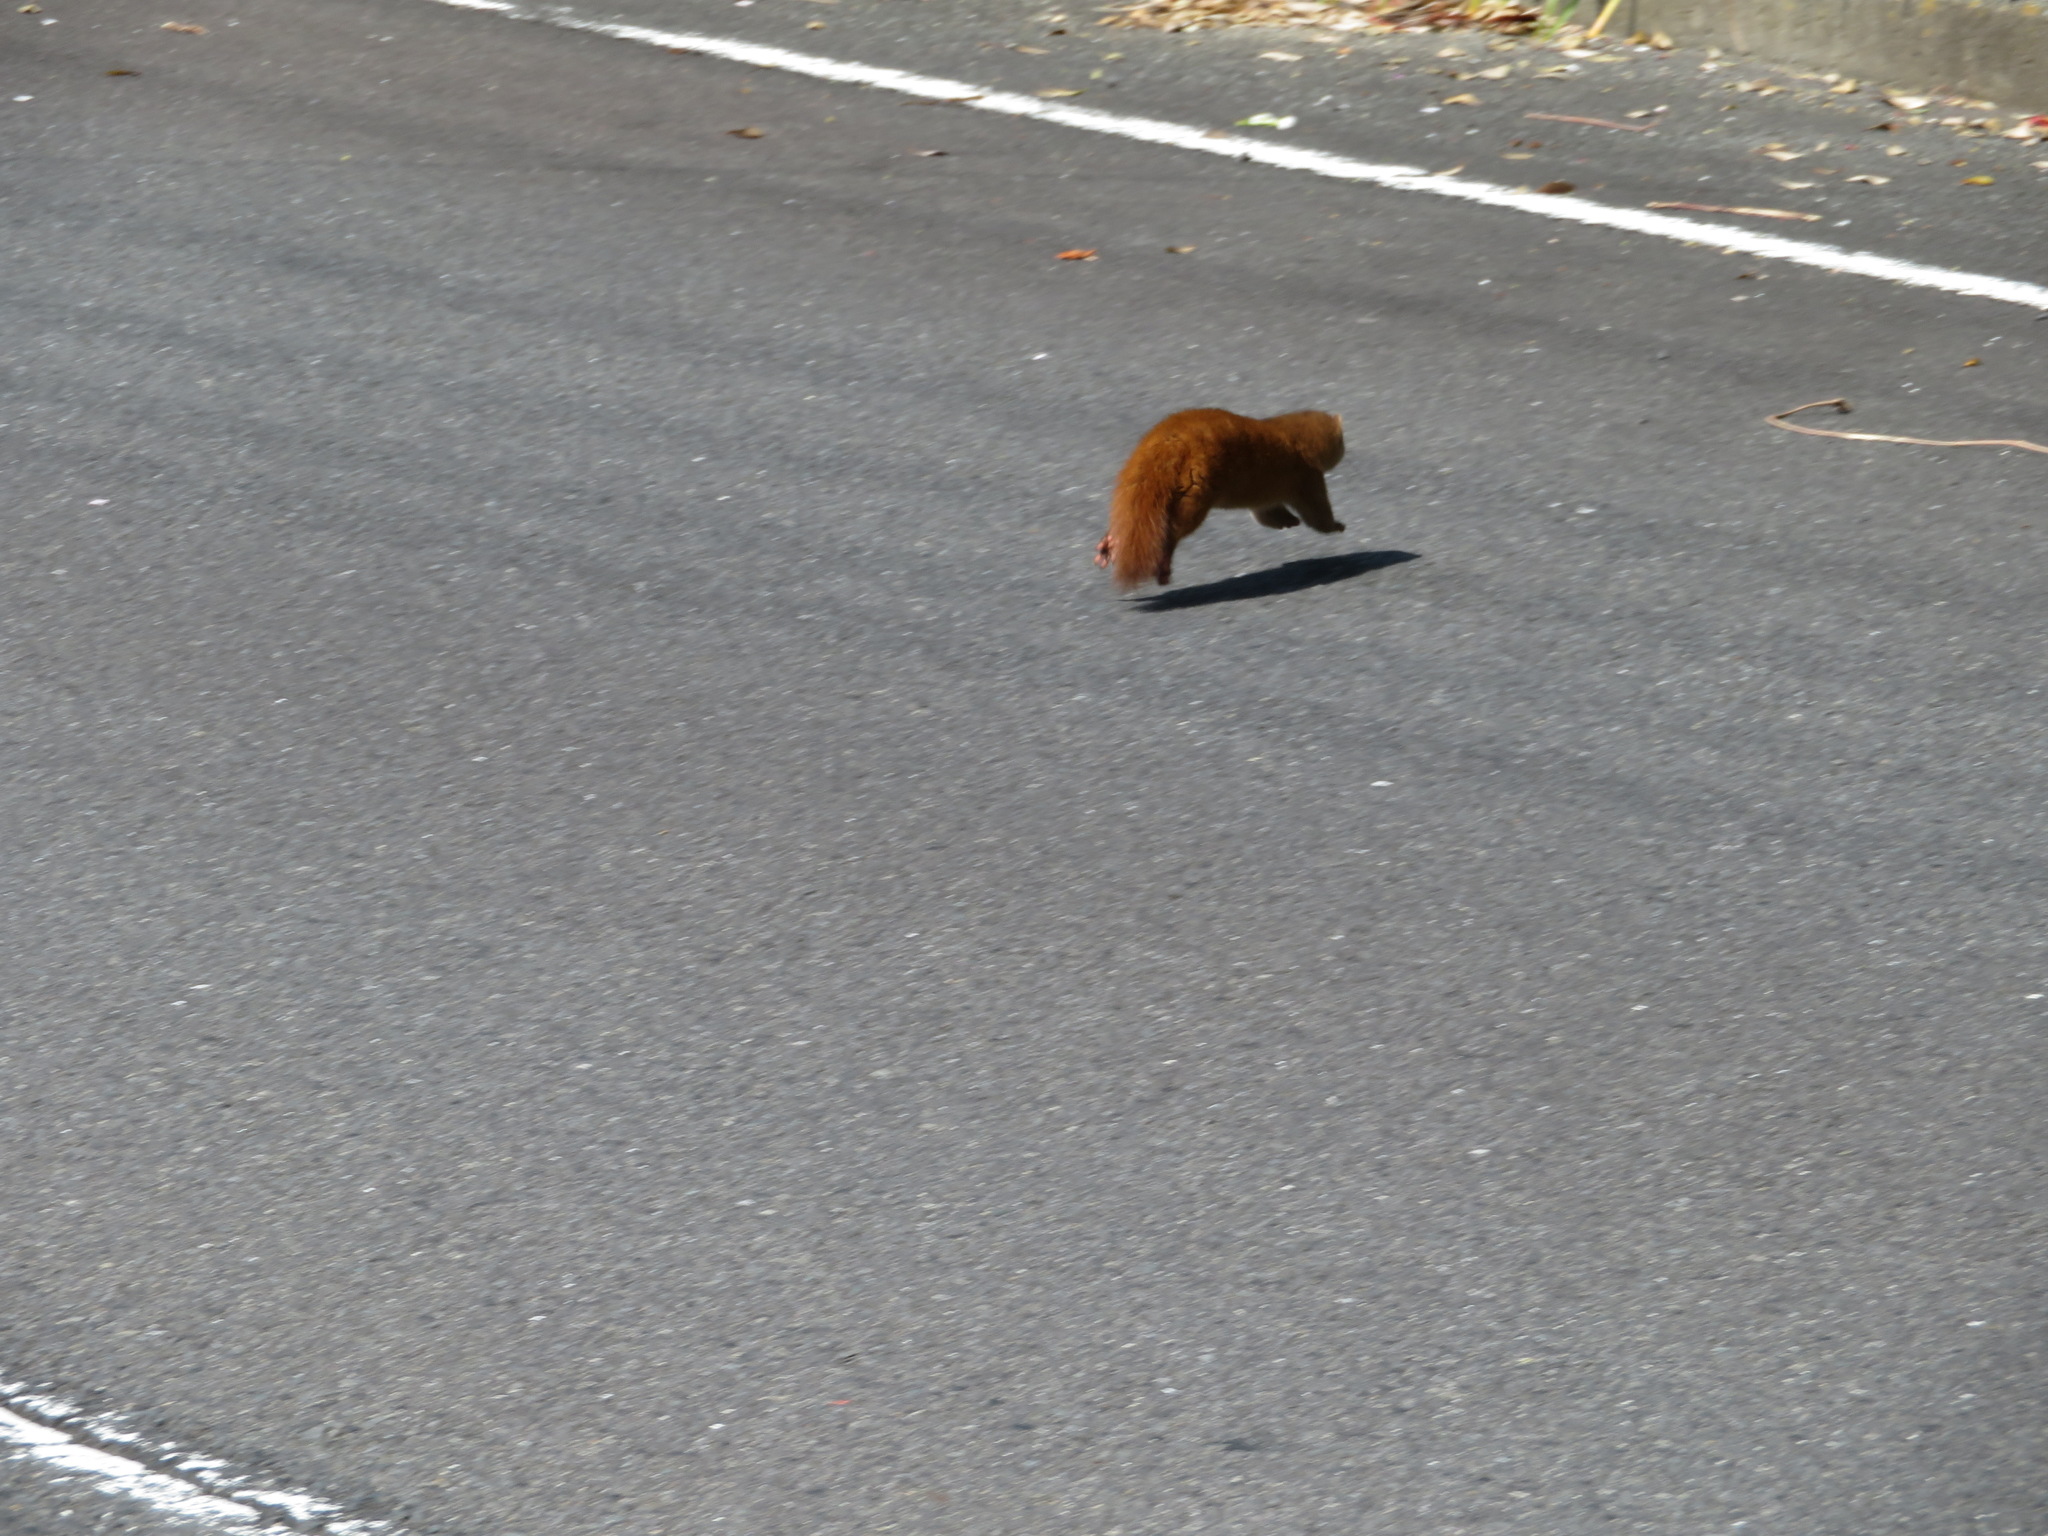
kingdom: Animalia
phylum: Chordata
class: Mammalia
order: Carnivora
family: Mustelidae
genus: Mustela
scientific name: Mustela itatsi
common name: Japanese weasel
